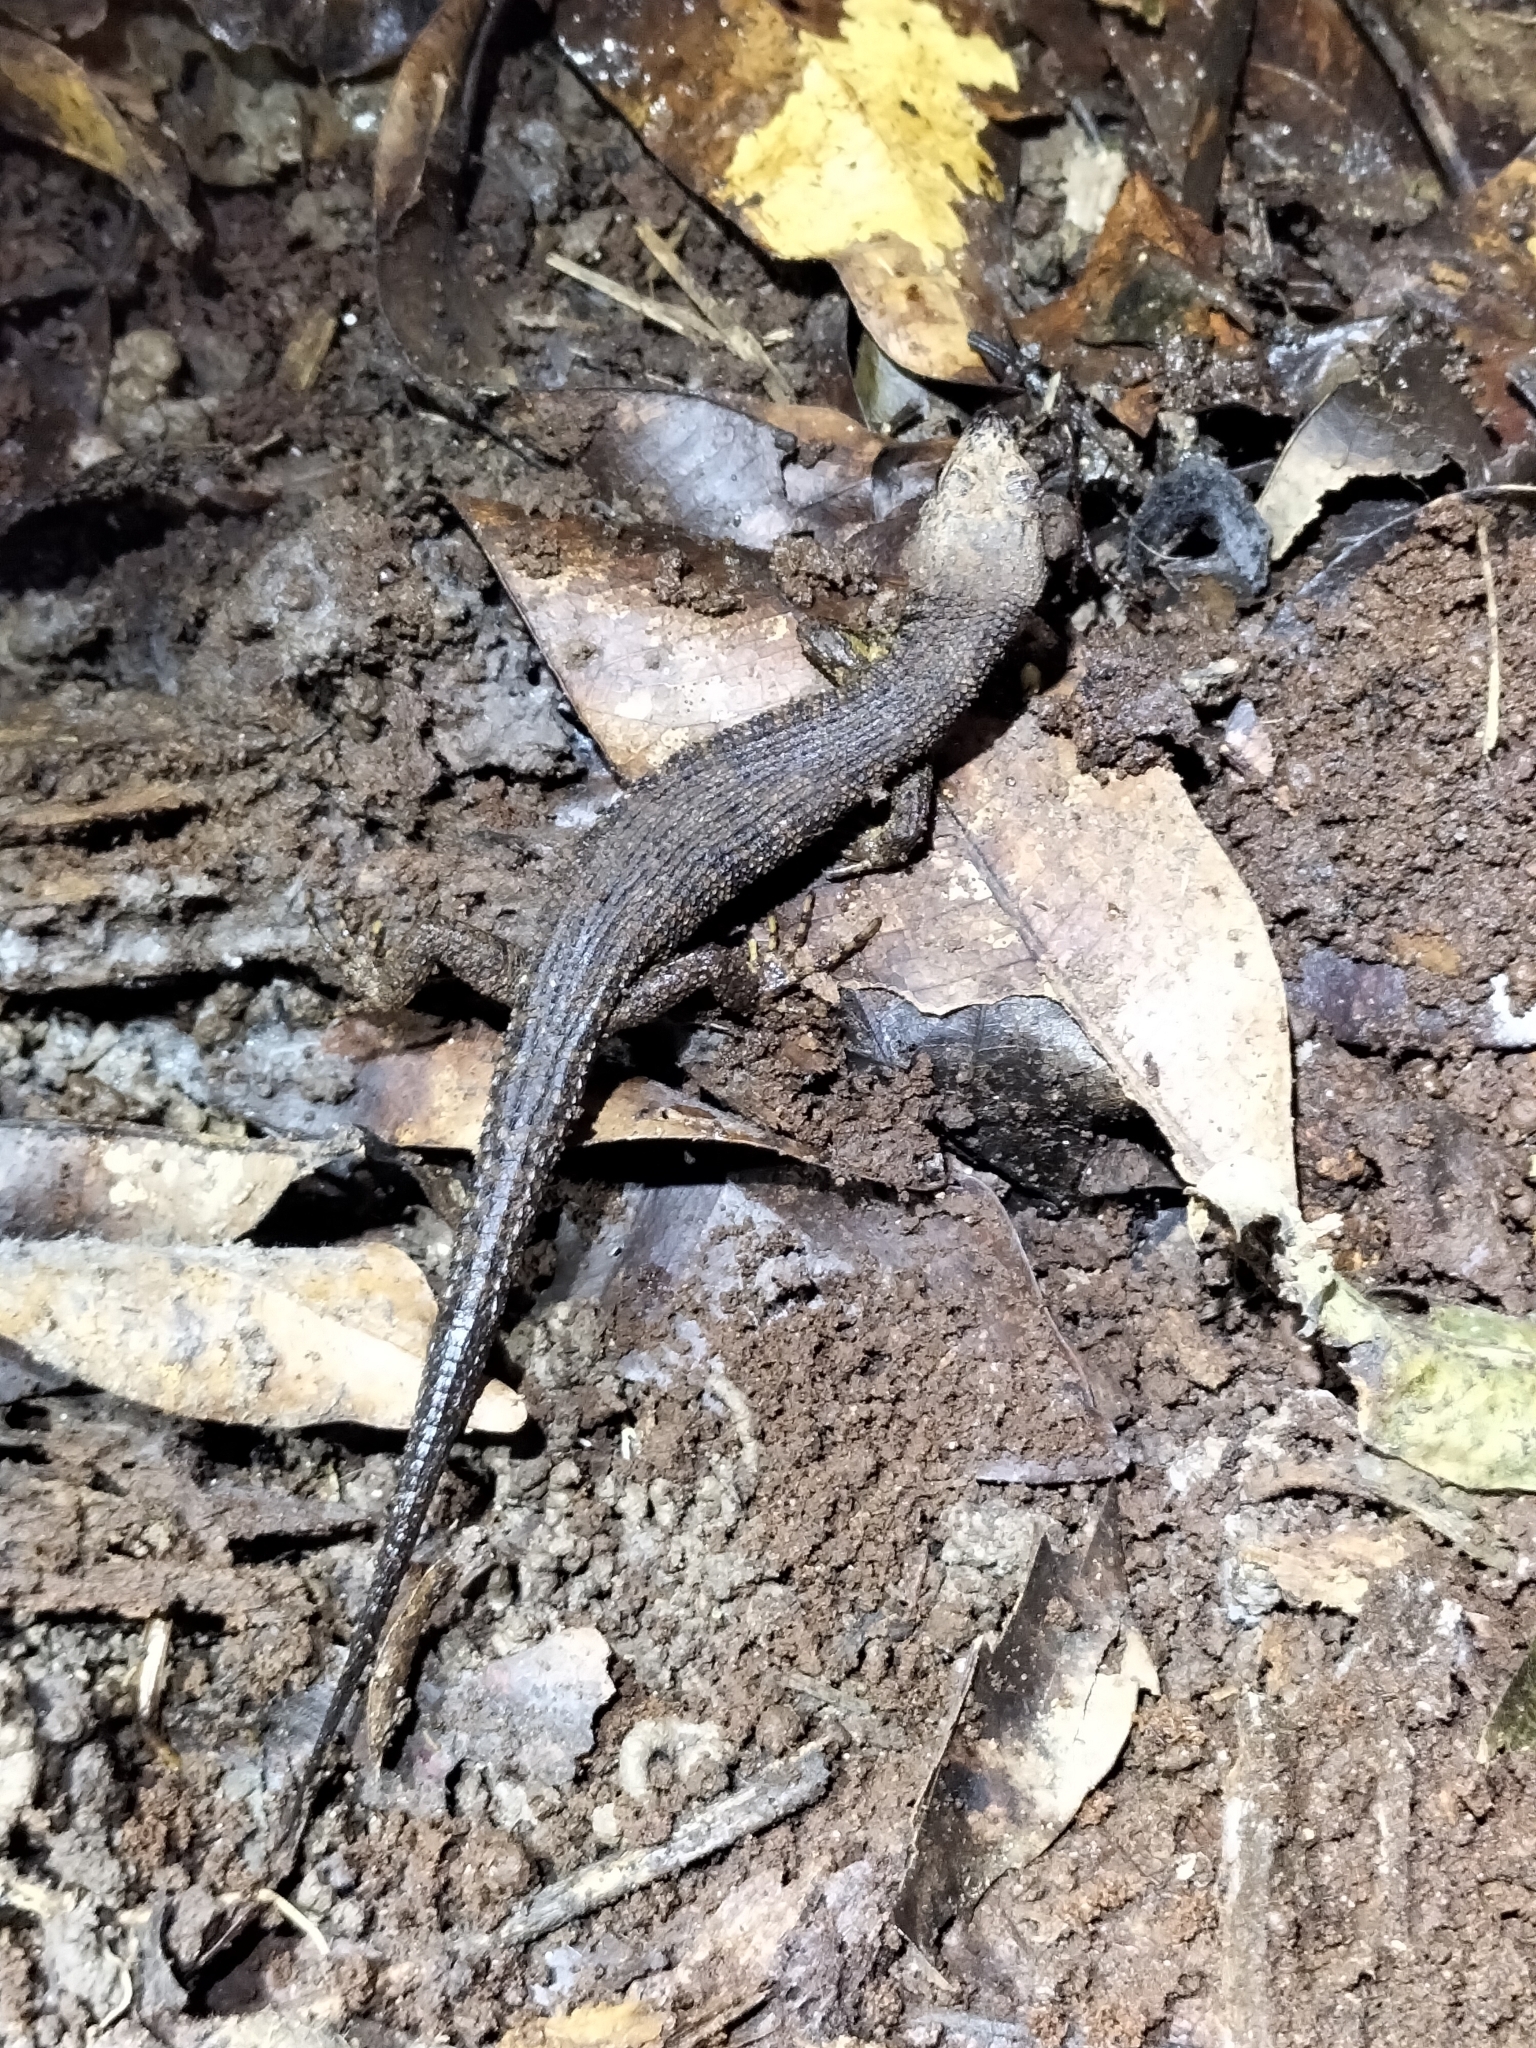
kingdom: Animalia
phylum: Chordata
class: Squamata
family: Scincidae
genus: Gnypetoscincus
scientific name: Gnypetoscincus queenslandiae
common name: Prickly forest skink
